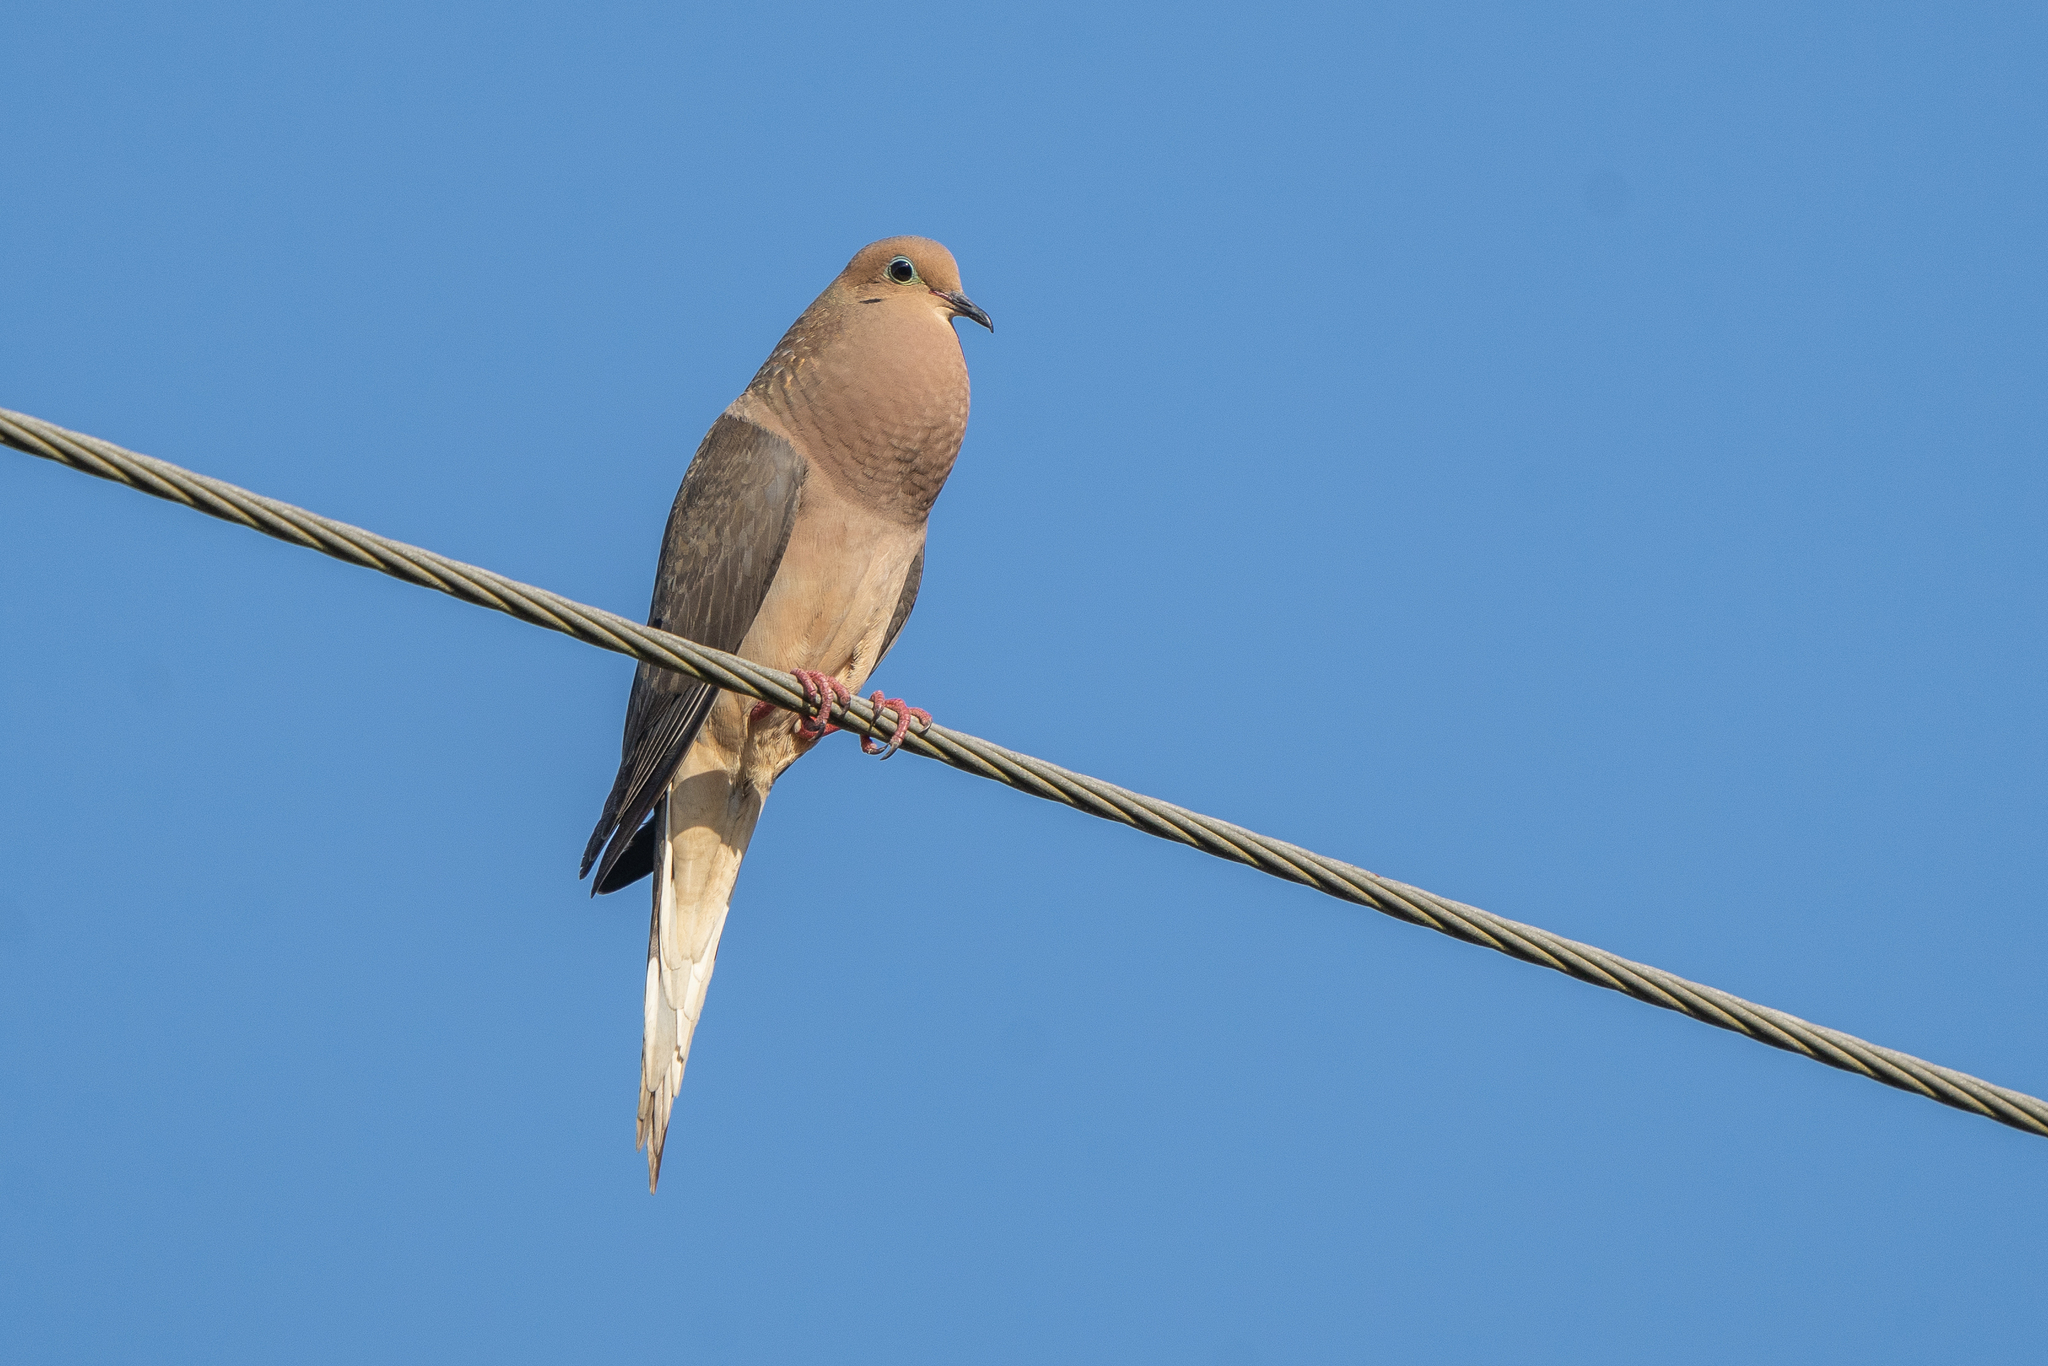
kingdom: Animalia
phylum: Chordata
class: Aves
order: Columbiformes
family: Columbidae
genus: Zenaida
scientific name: Zenaida macroura
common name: Mourning dove
